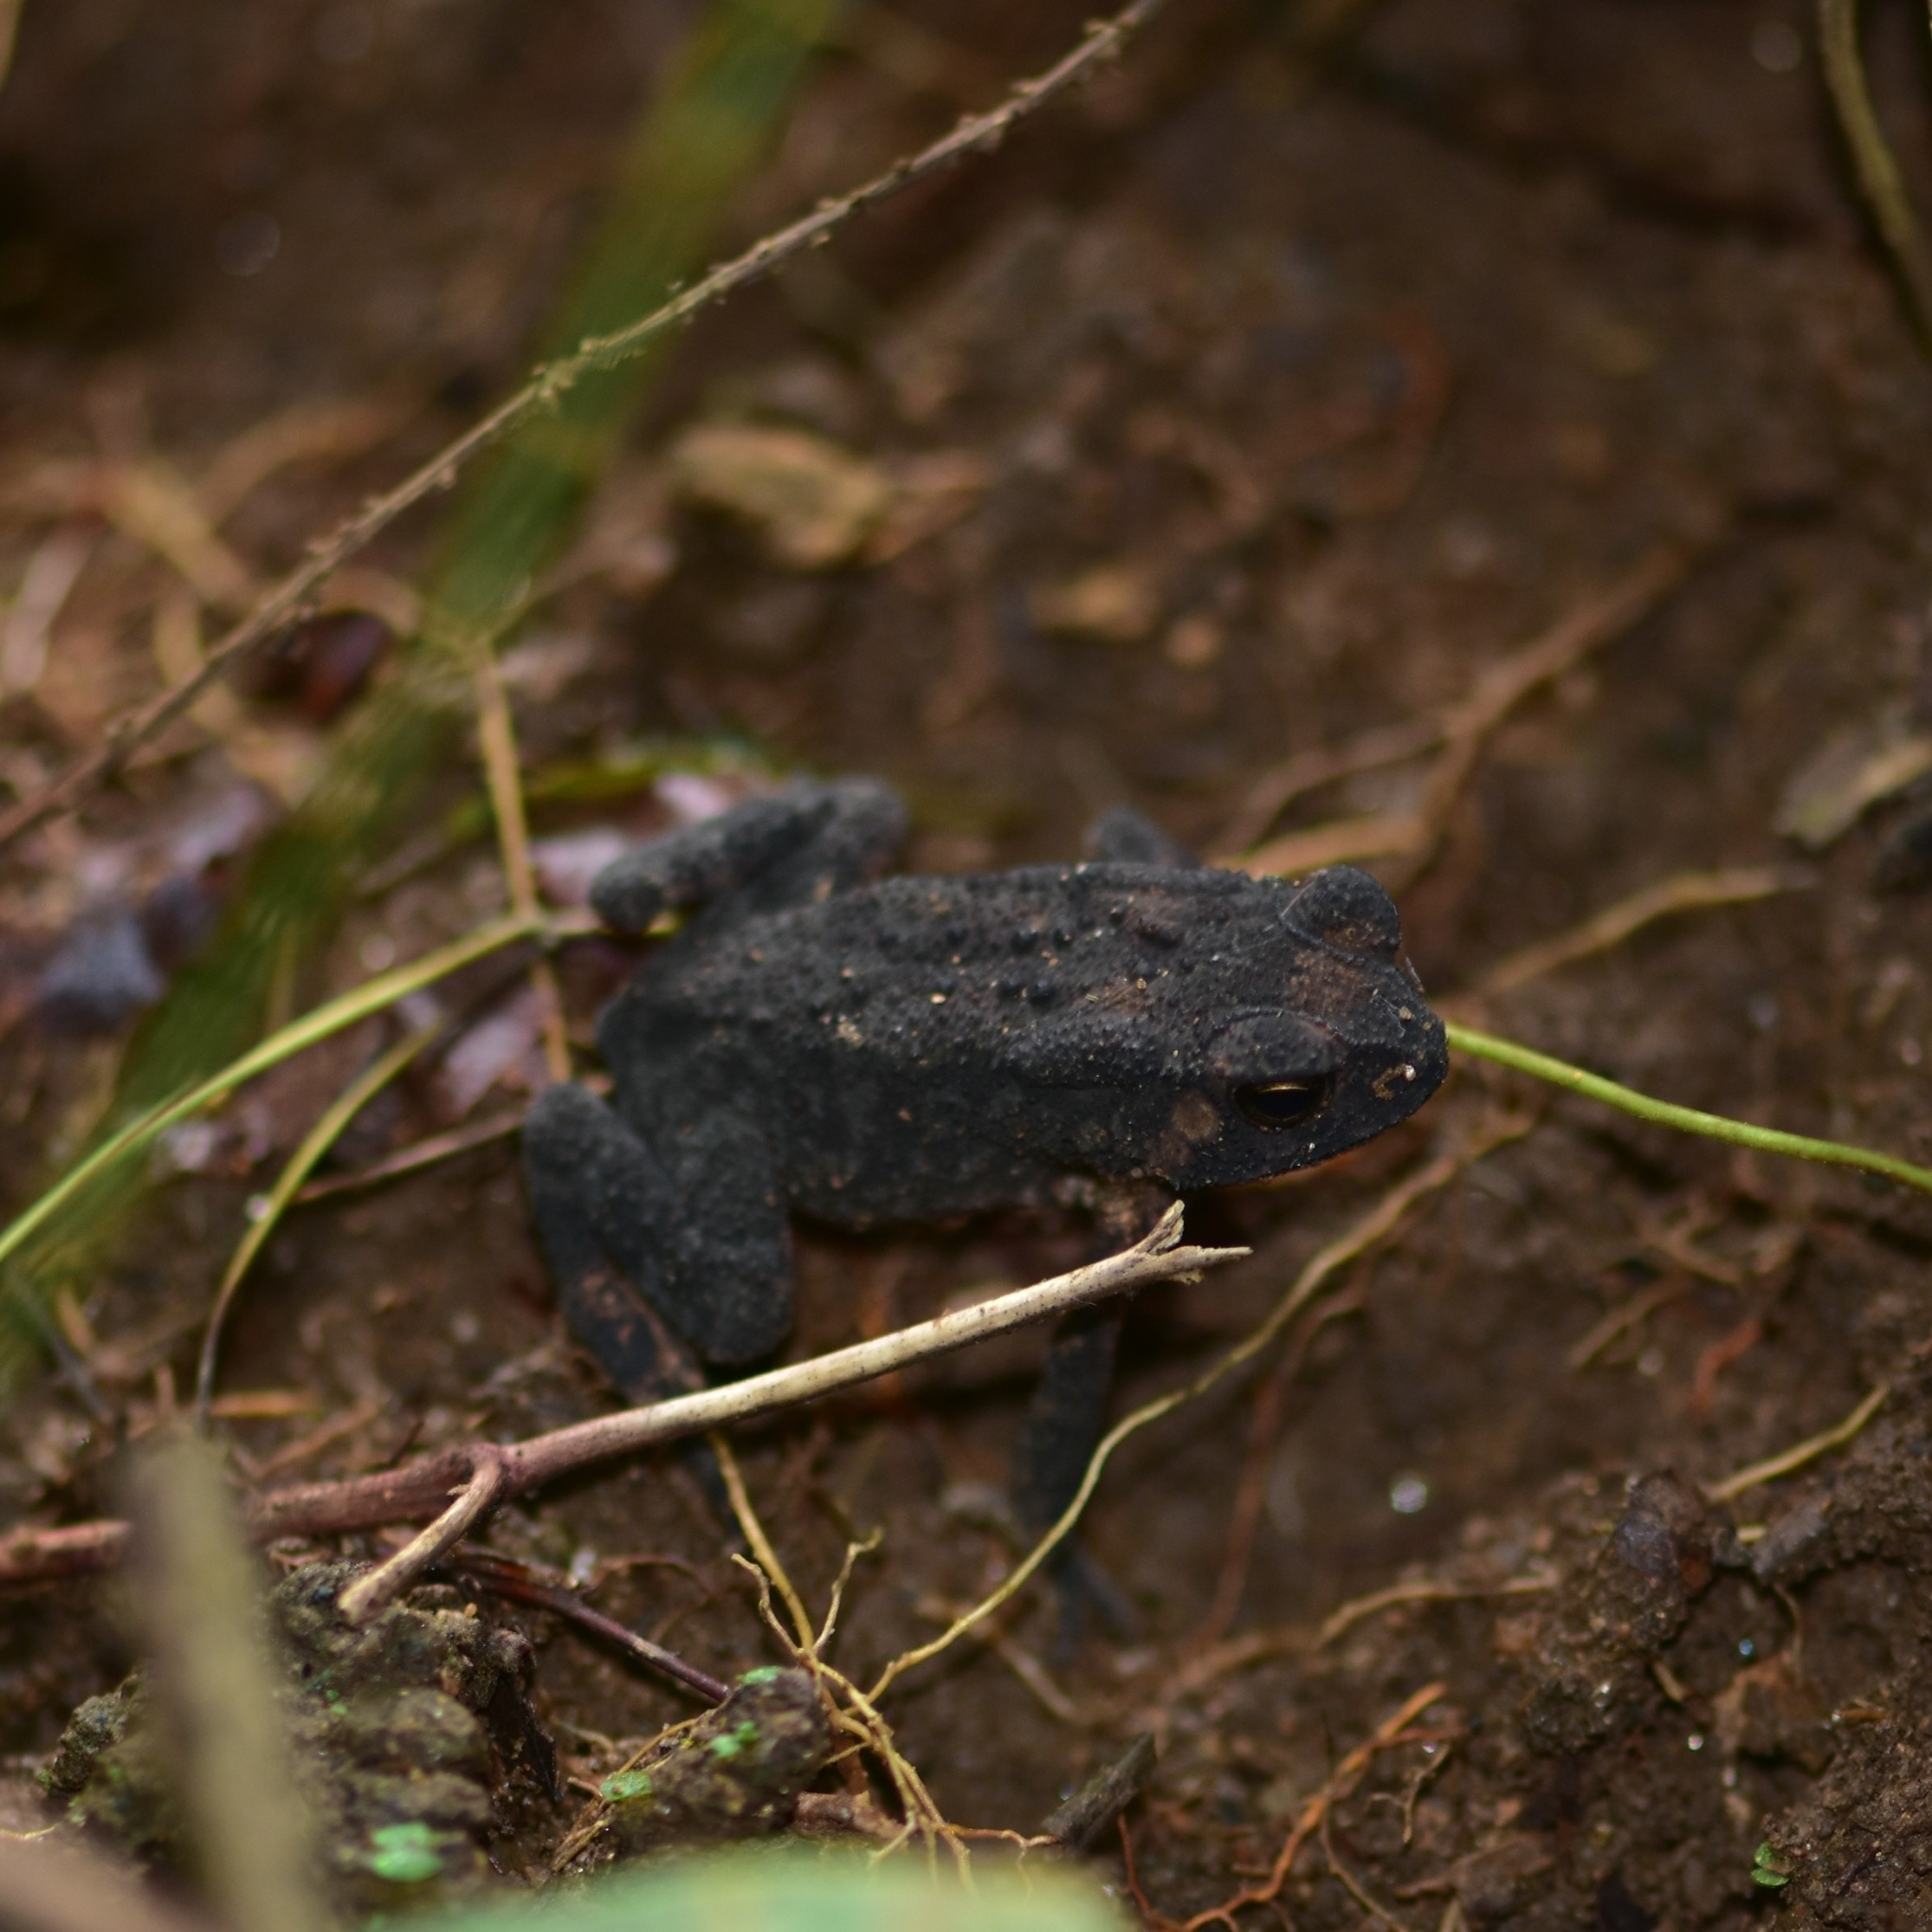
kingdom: Animalia
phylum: Chordata
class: Amphibia
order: Anura
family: Bufonidae
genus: Duttaphrynus
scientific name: Duttaphrynus melanostictus
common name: Common sunda toad
